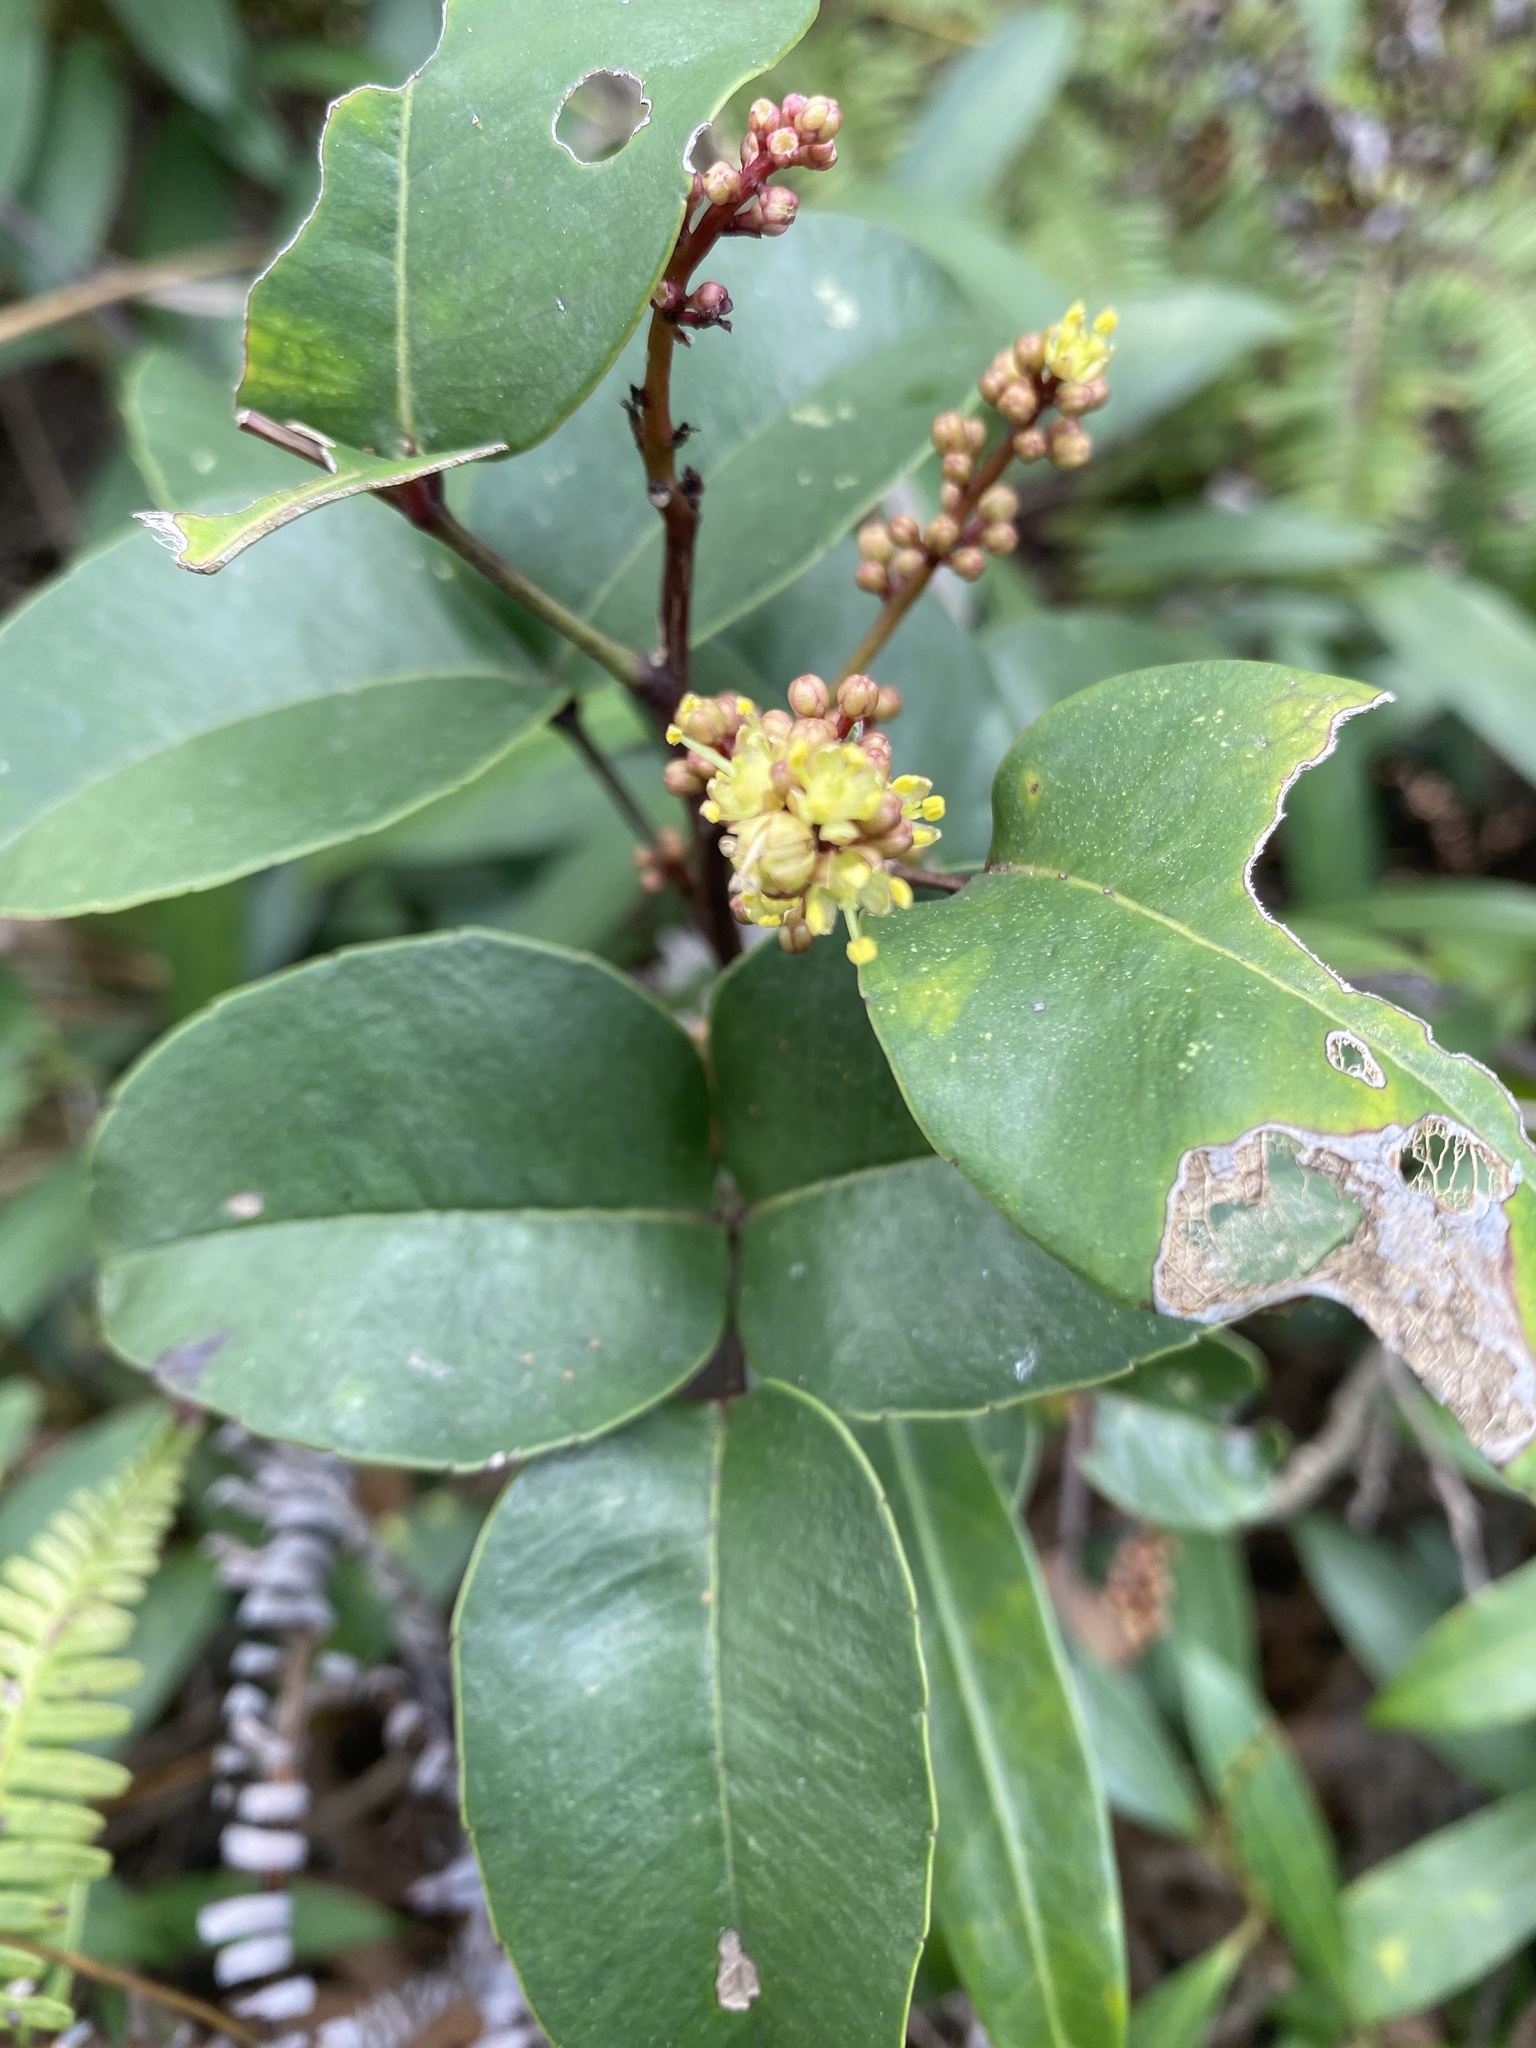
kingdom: Plantae
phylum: Tracheophyta
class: Magnoliopsida
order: Sapindales
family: Rutaceae
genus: Zanthoxylum
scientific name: Zanthoxylum nitidum
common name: Shiny-leaf prickly-ash
